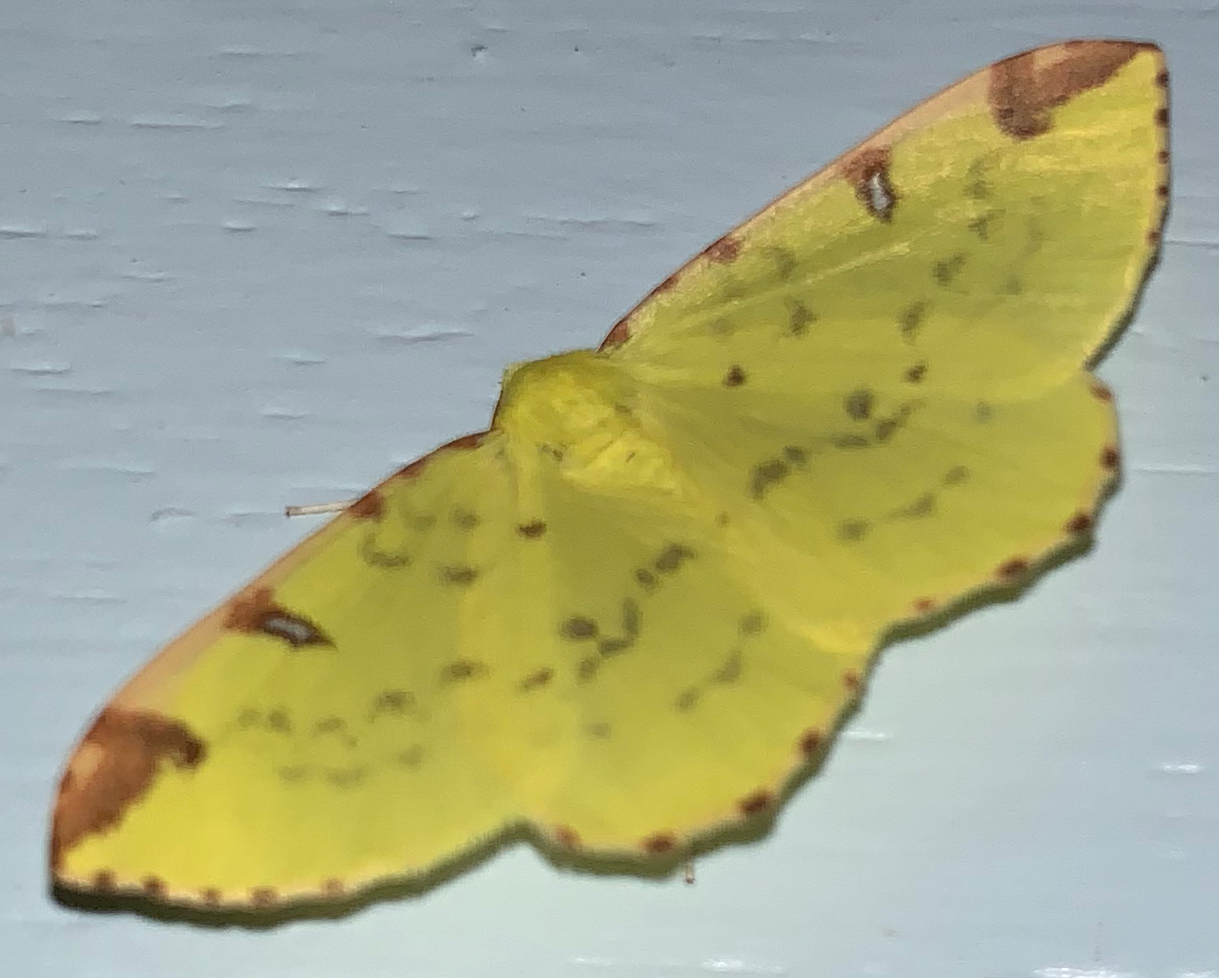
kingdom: Animalia
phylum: Arthropoda
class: Insecta
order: Lepidoptera
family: Geometridae
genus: Opisthograptis
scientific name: Opisthograptis luteolata
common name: Brimstone moth
